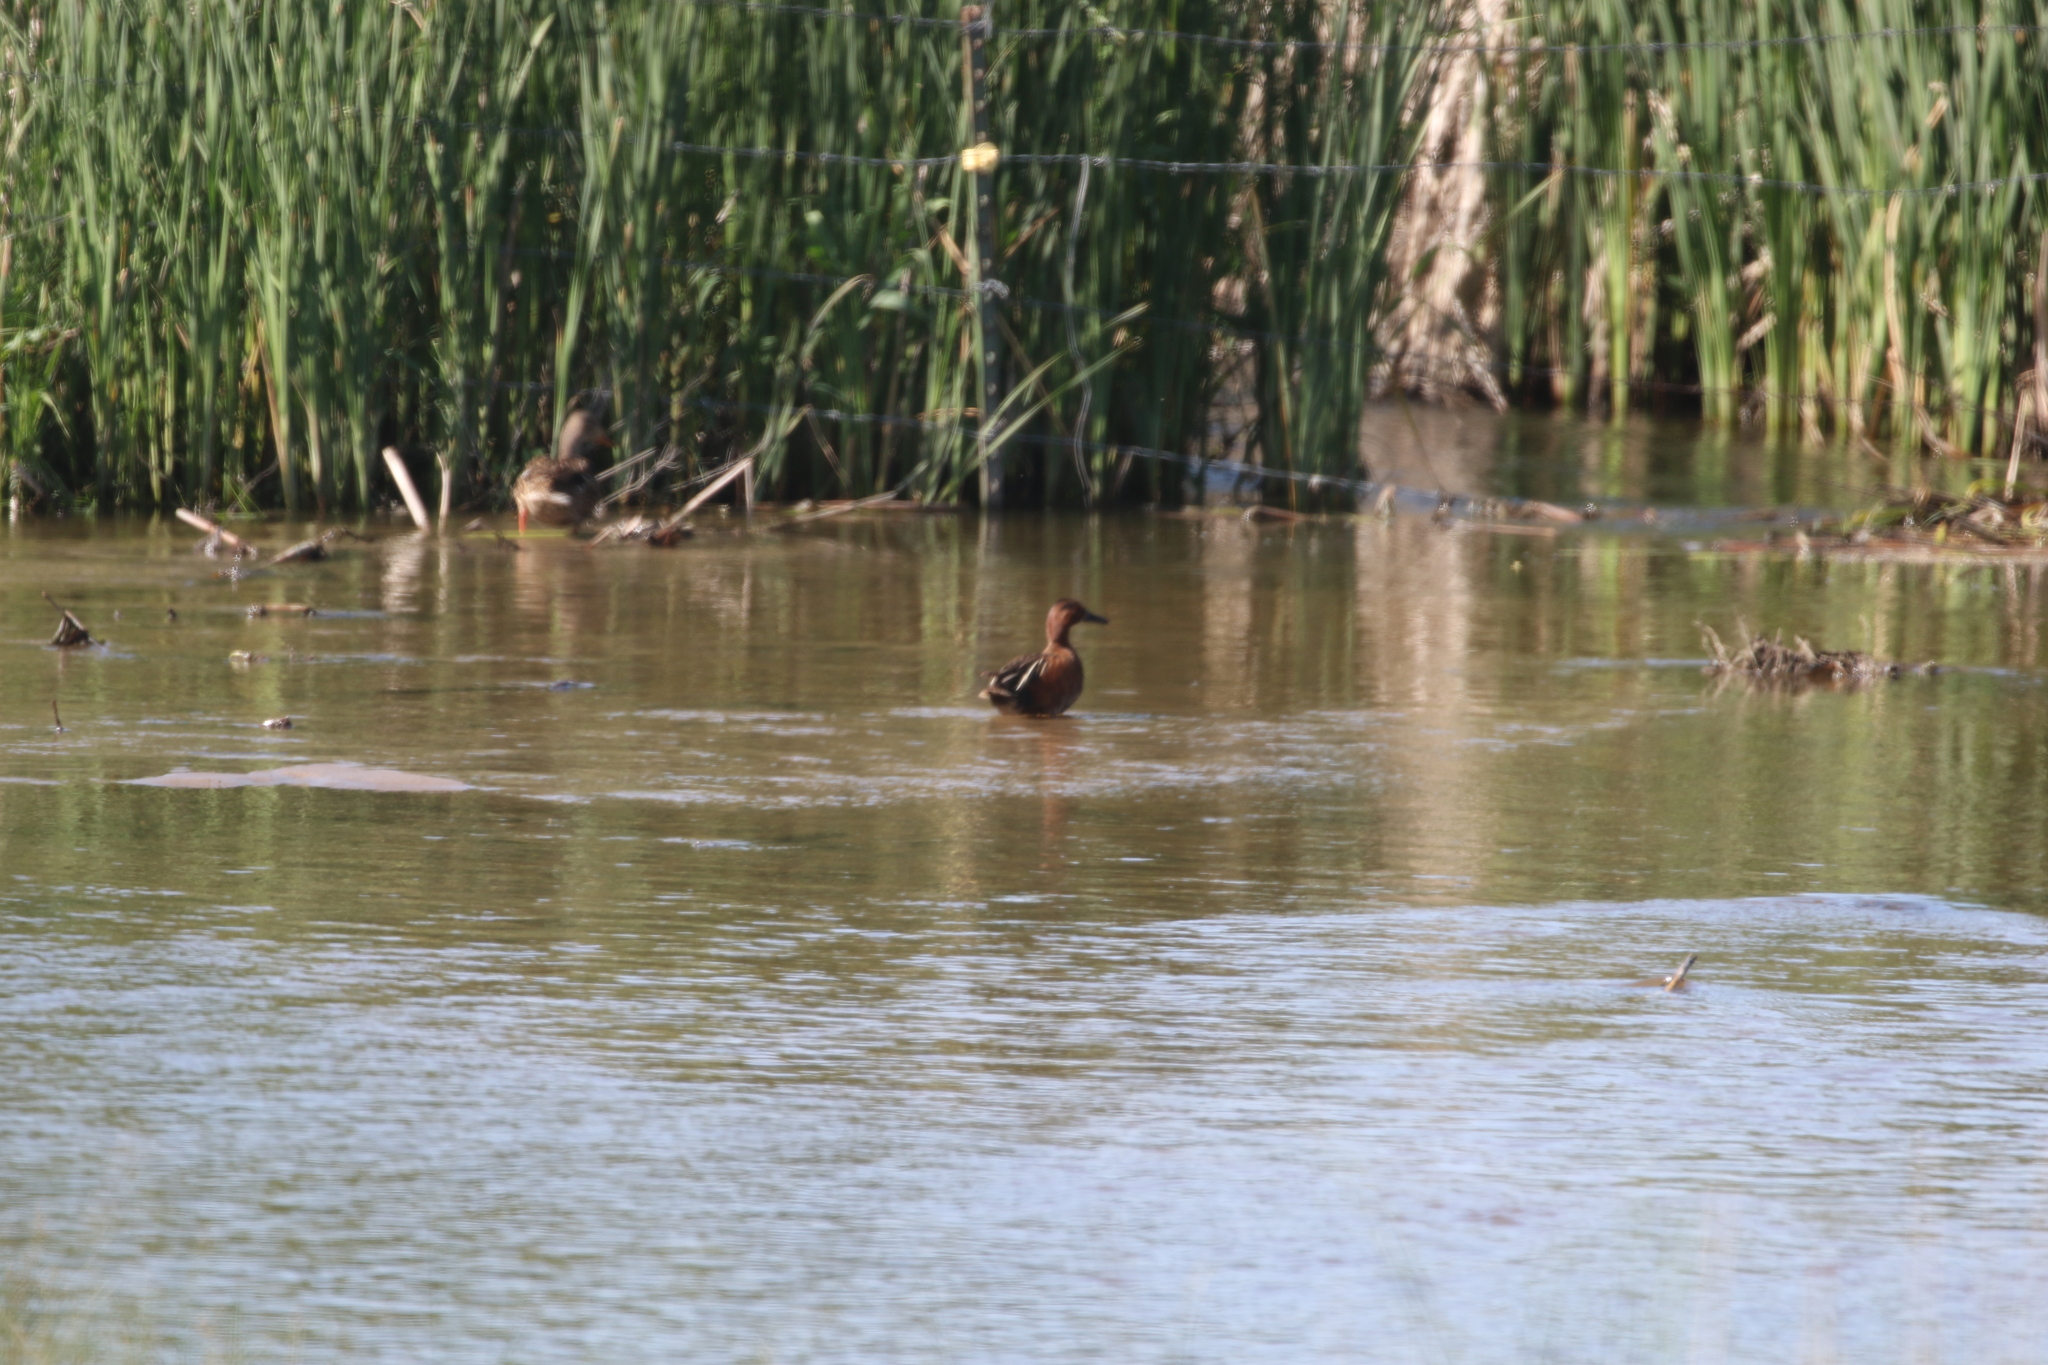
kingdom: Animalia
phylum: Chordata
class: Aves
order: Anseriformes
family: Anatidae
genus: Spatula
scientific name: Spatula cyanoptera
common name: Cinnamon teal
